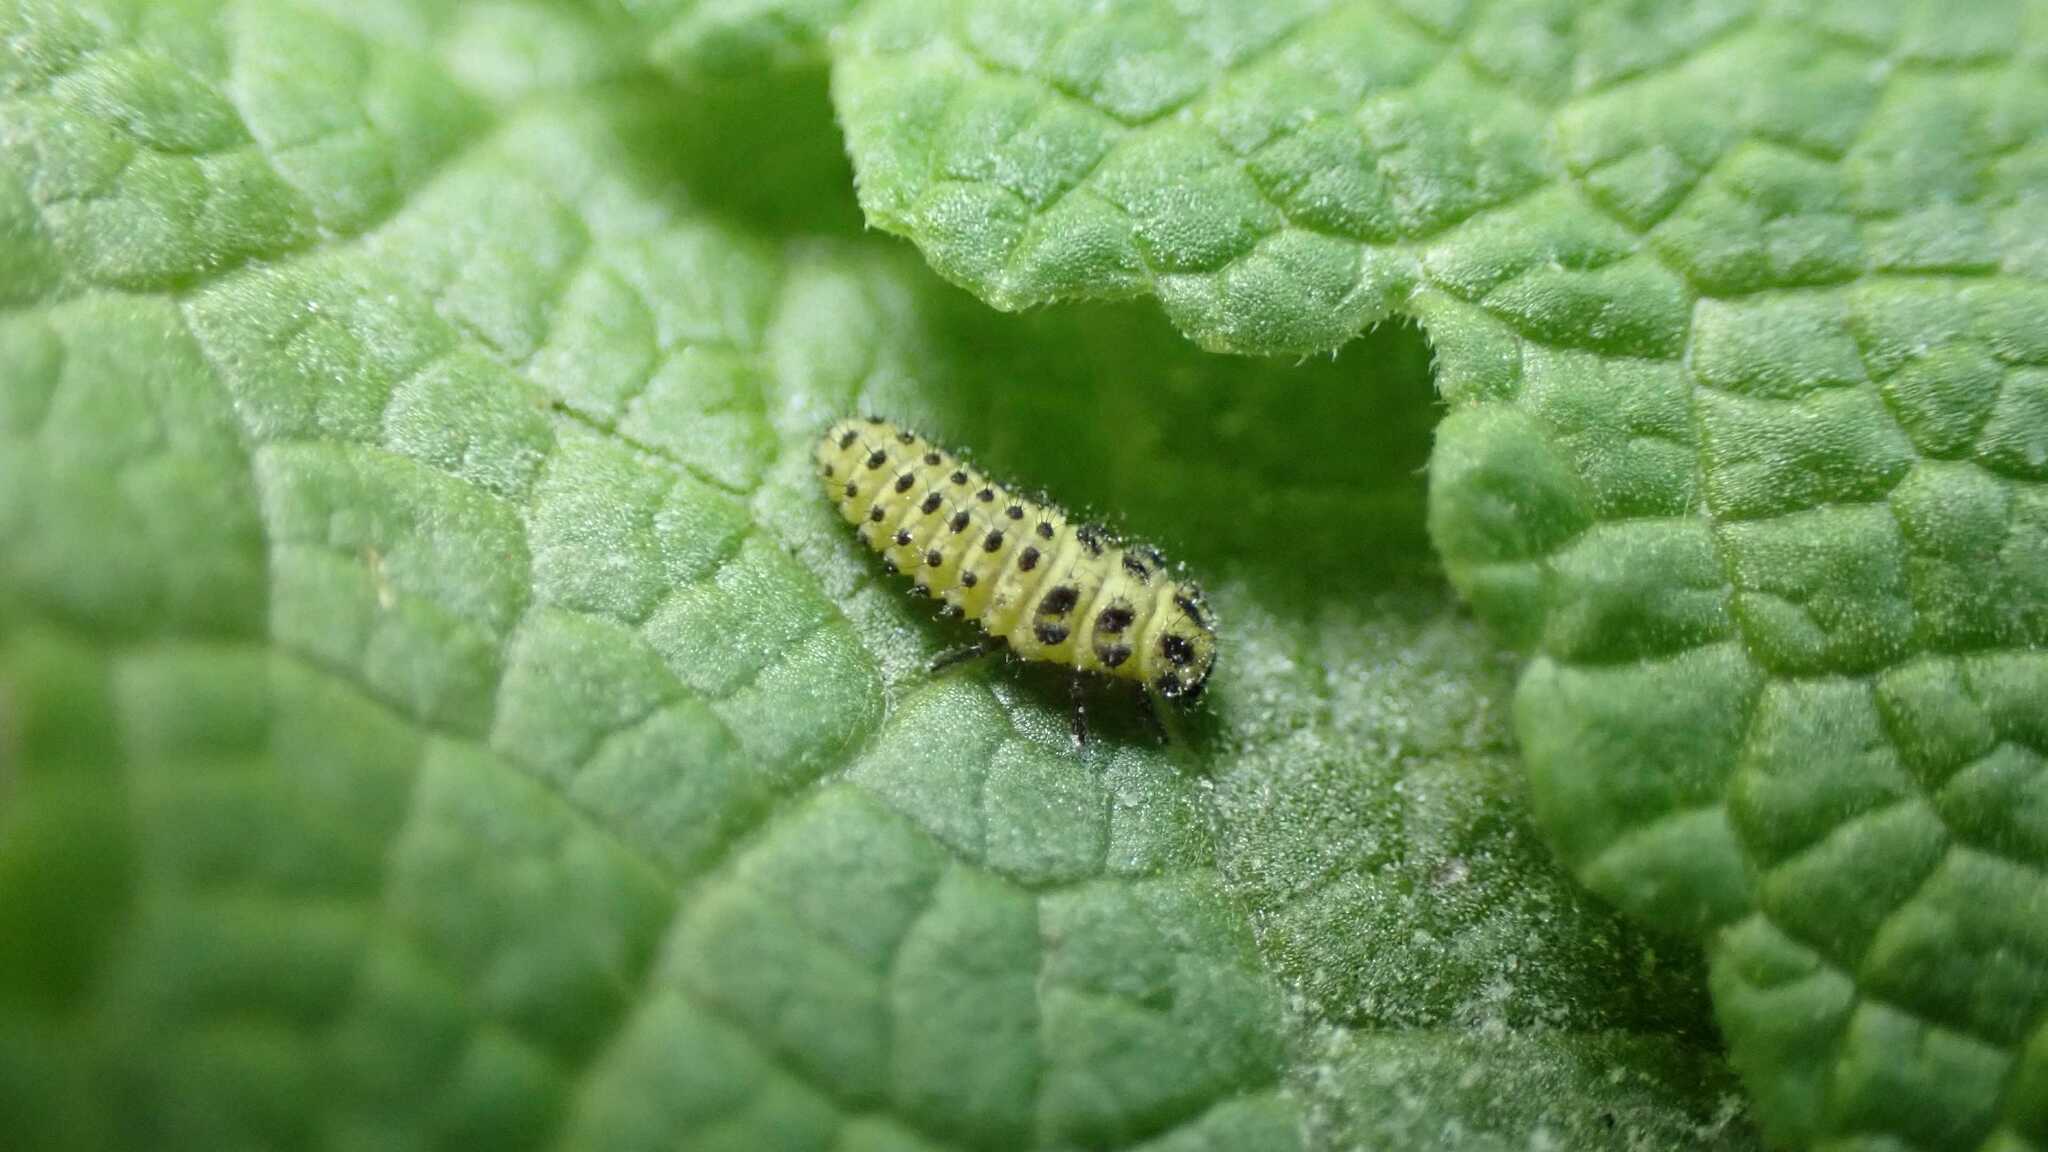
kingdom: Animalia
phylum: Arthropoda
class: Insecta
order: Coleoptera
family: Coccinellidae
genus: Psyllobora
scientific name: Psyllobora vigintiduopunctata
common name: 22-spot ladybird
